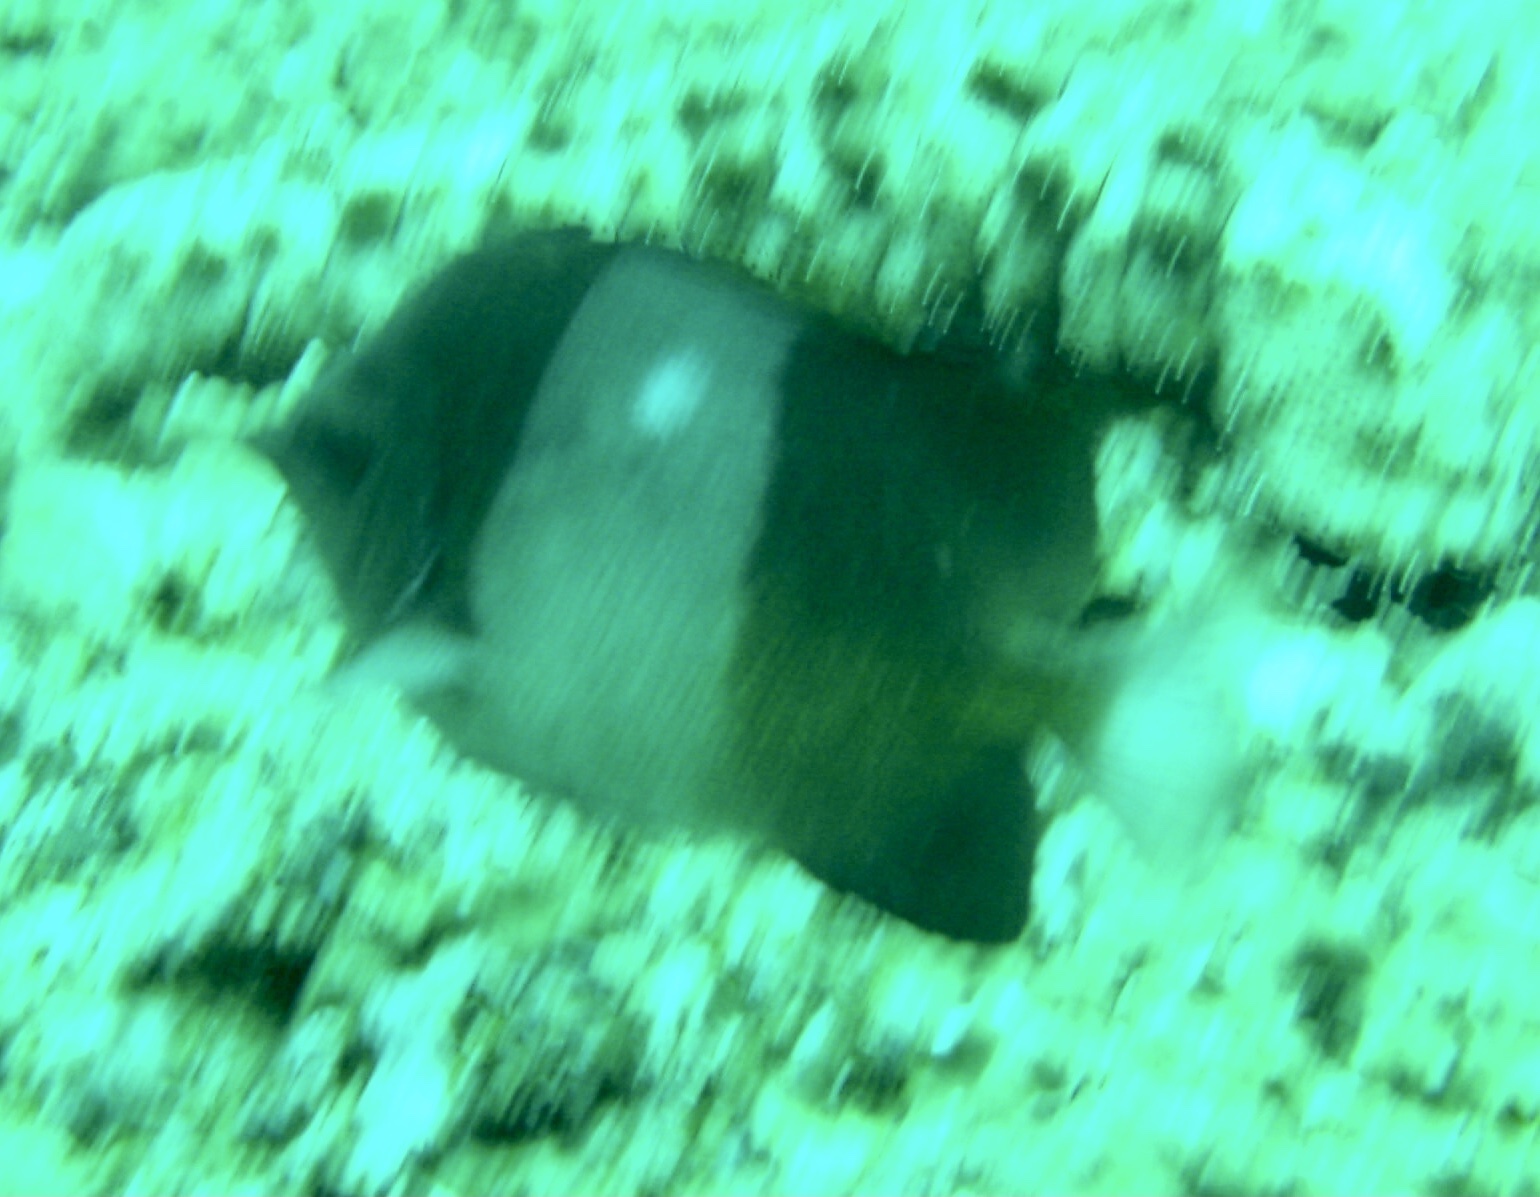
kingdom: Animalia
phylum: Chordata
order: Perciformes
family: Chaetodontidae
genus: Hemitaurichthys
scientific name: Hemitaurichthys zoster
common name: Brown-and-white butterflyfish
